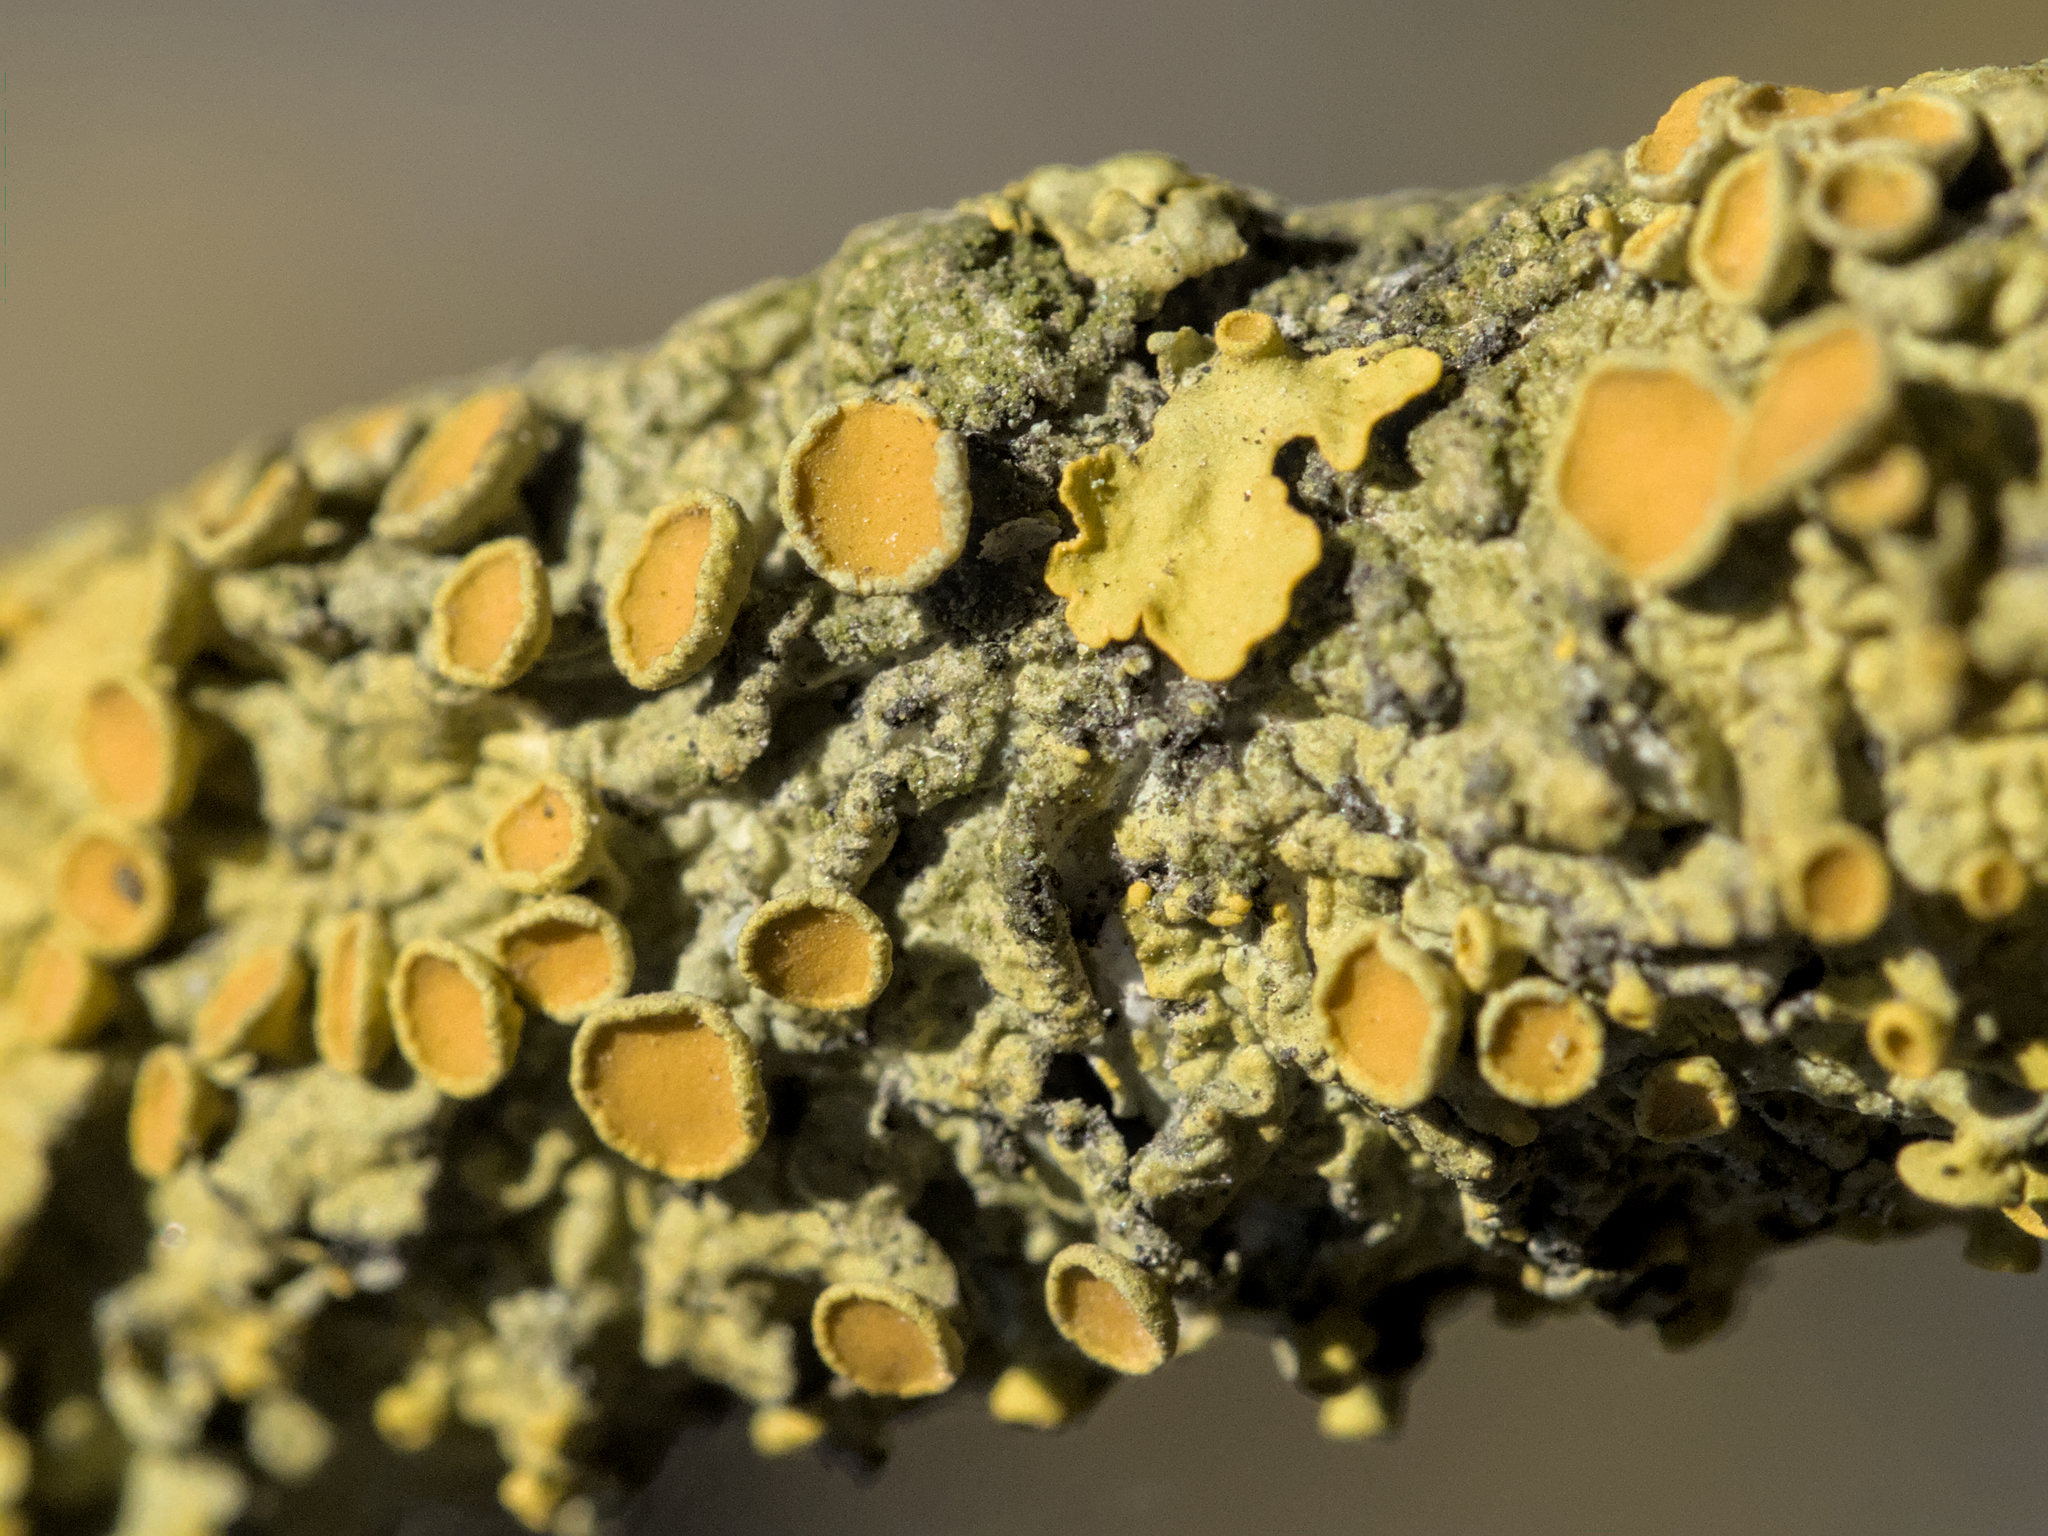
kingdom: Fungi
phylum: Ascomycota
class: Lecanoromycetes
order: Teloschistales
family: Teloschistaceae
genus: Xanthoria
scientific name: Xanthoria parietina
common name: Common orange lichen
